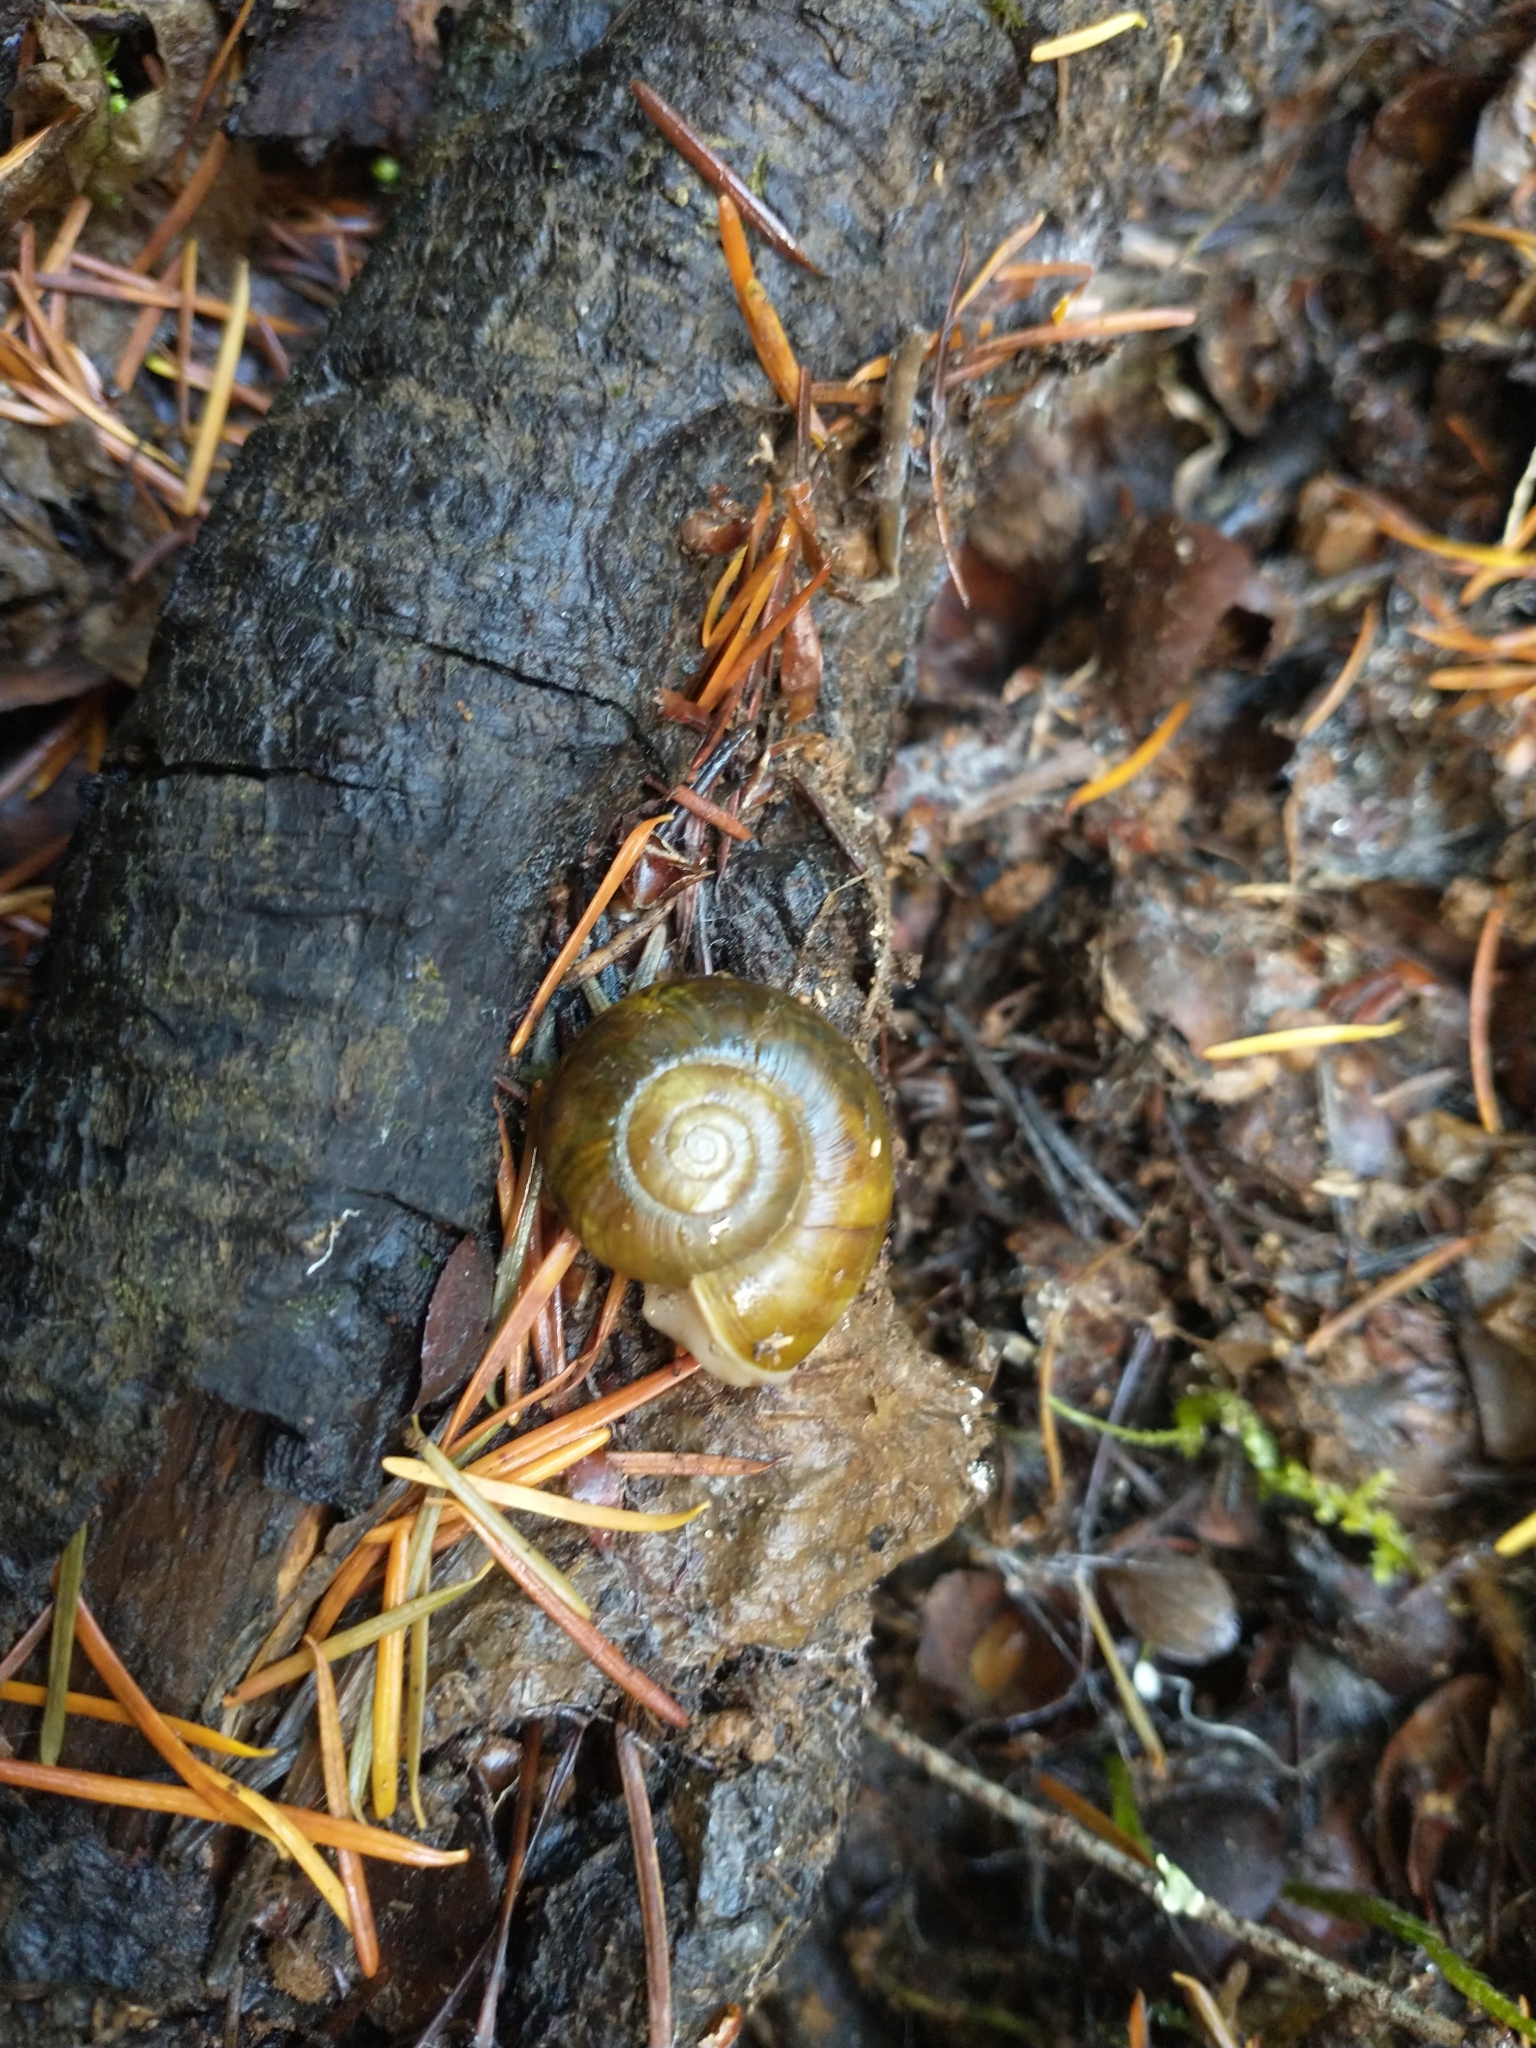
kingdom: Animalia
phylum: Mollusca
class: Gastropoda
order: Stylommatophora
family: Haplotrematidae
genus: Haplotrema
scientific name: Haplotrema vancouverense
